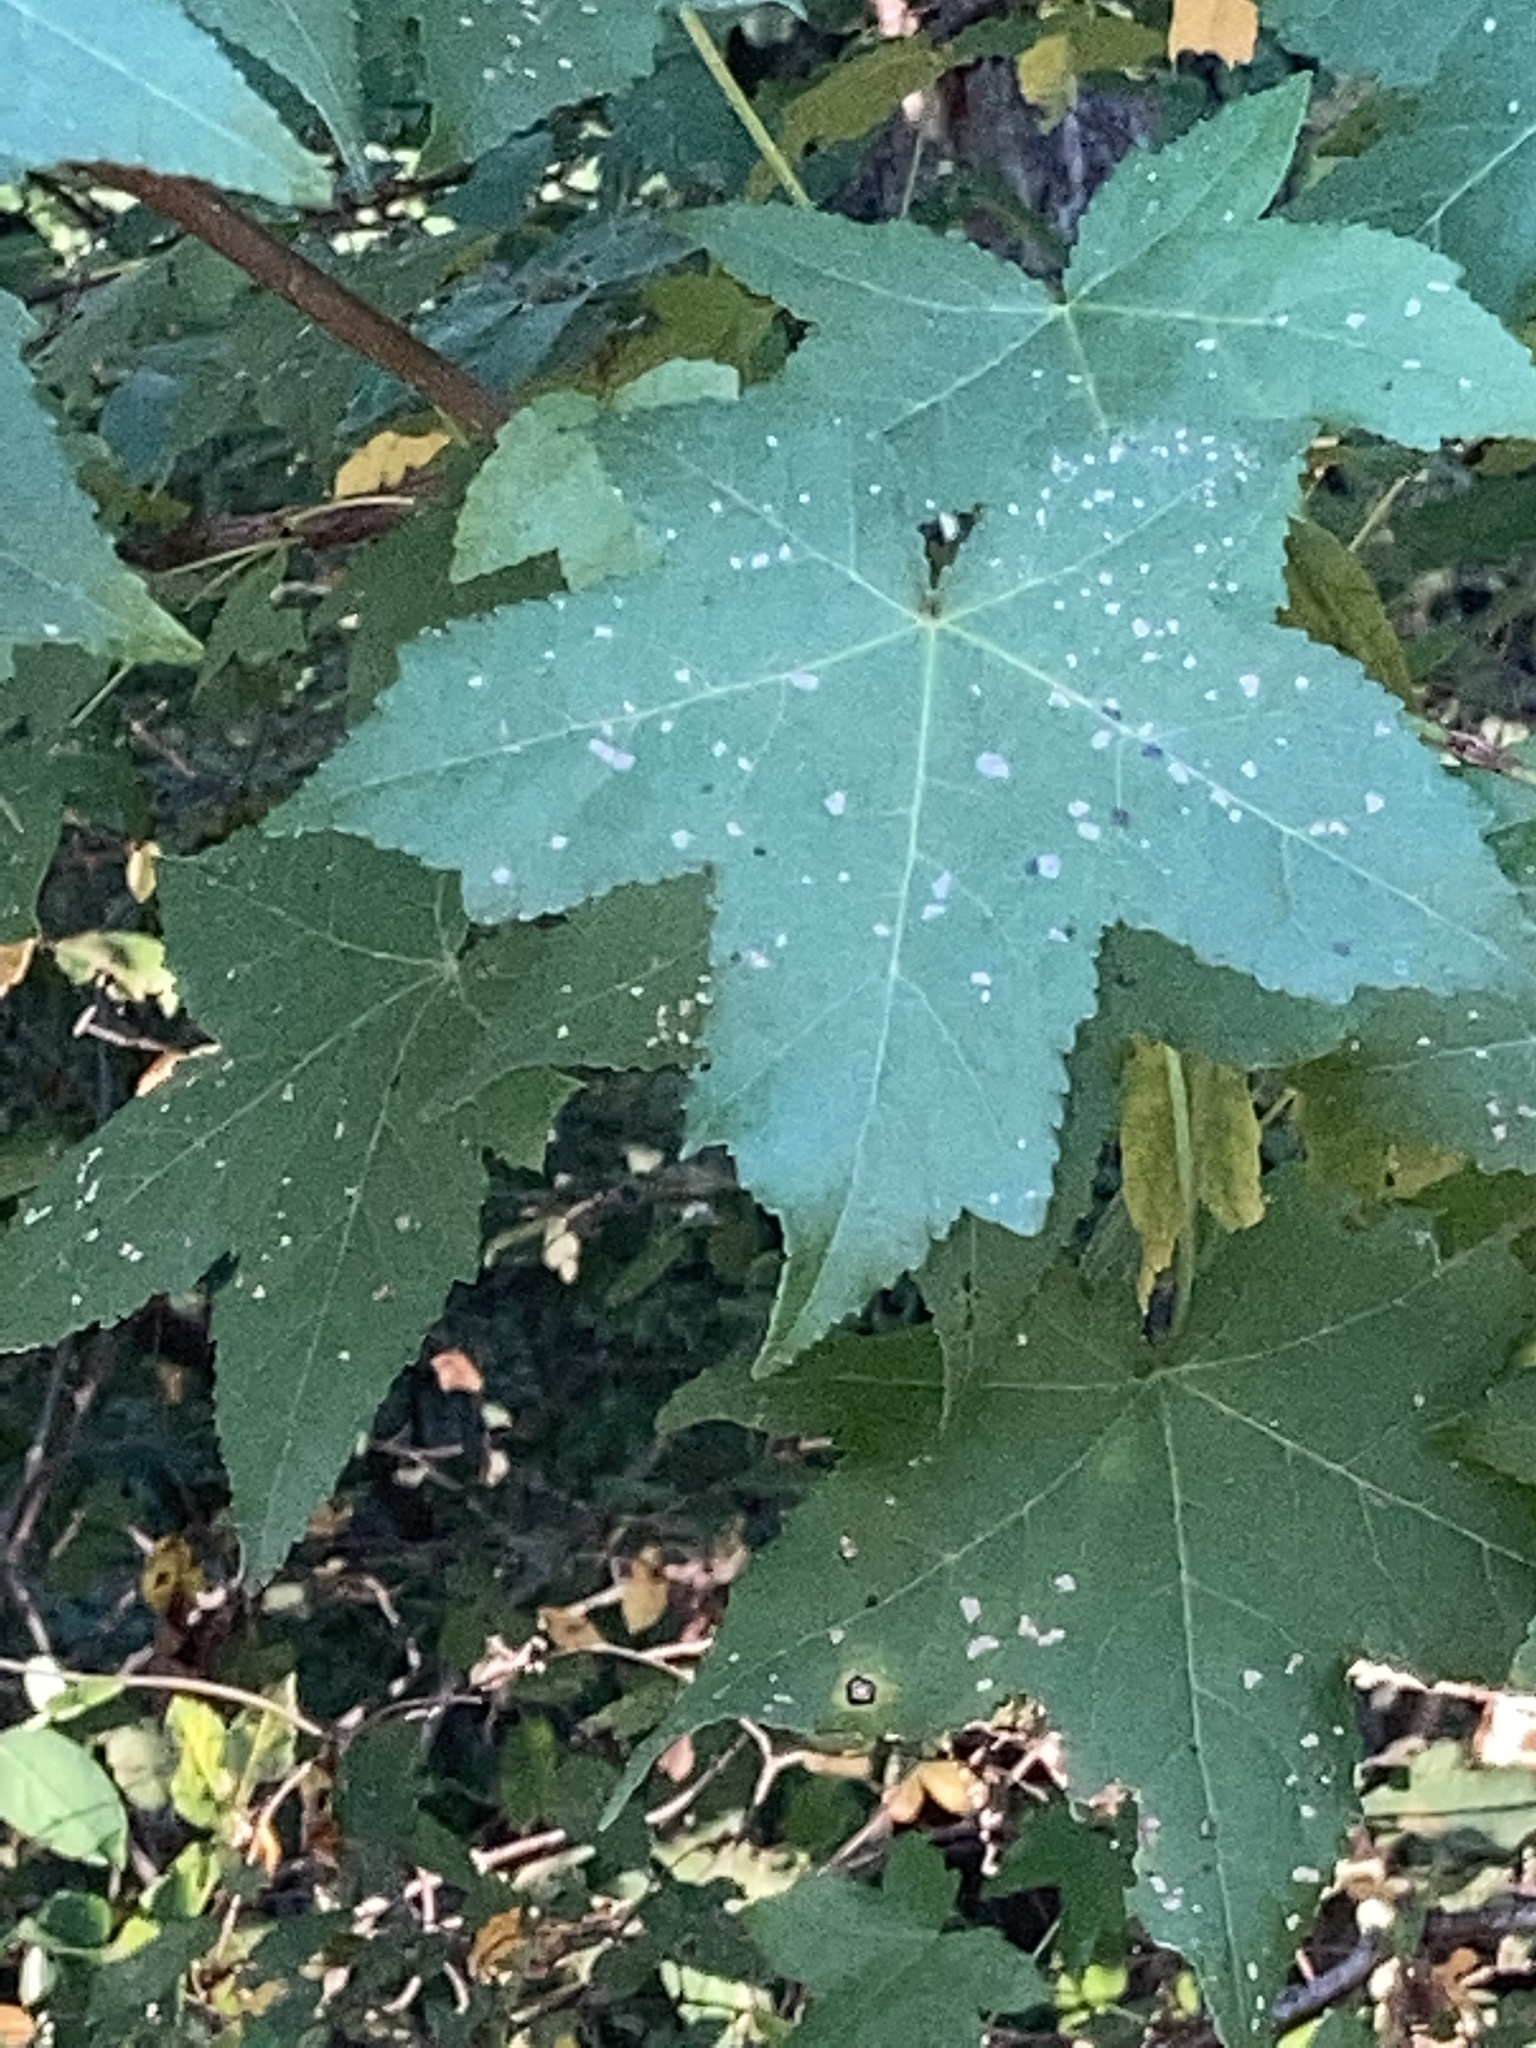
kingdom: Plantae
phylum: Tracheophyta
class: Magnoliopsida
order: Saxifragales
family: Altingiaceae
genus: Liquidambar
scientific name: Liquidambar styraciflua
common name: Sweet gum
